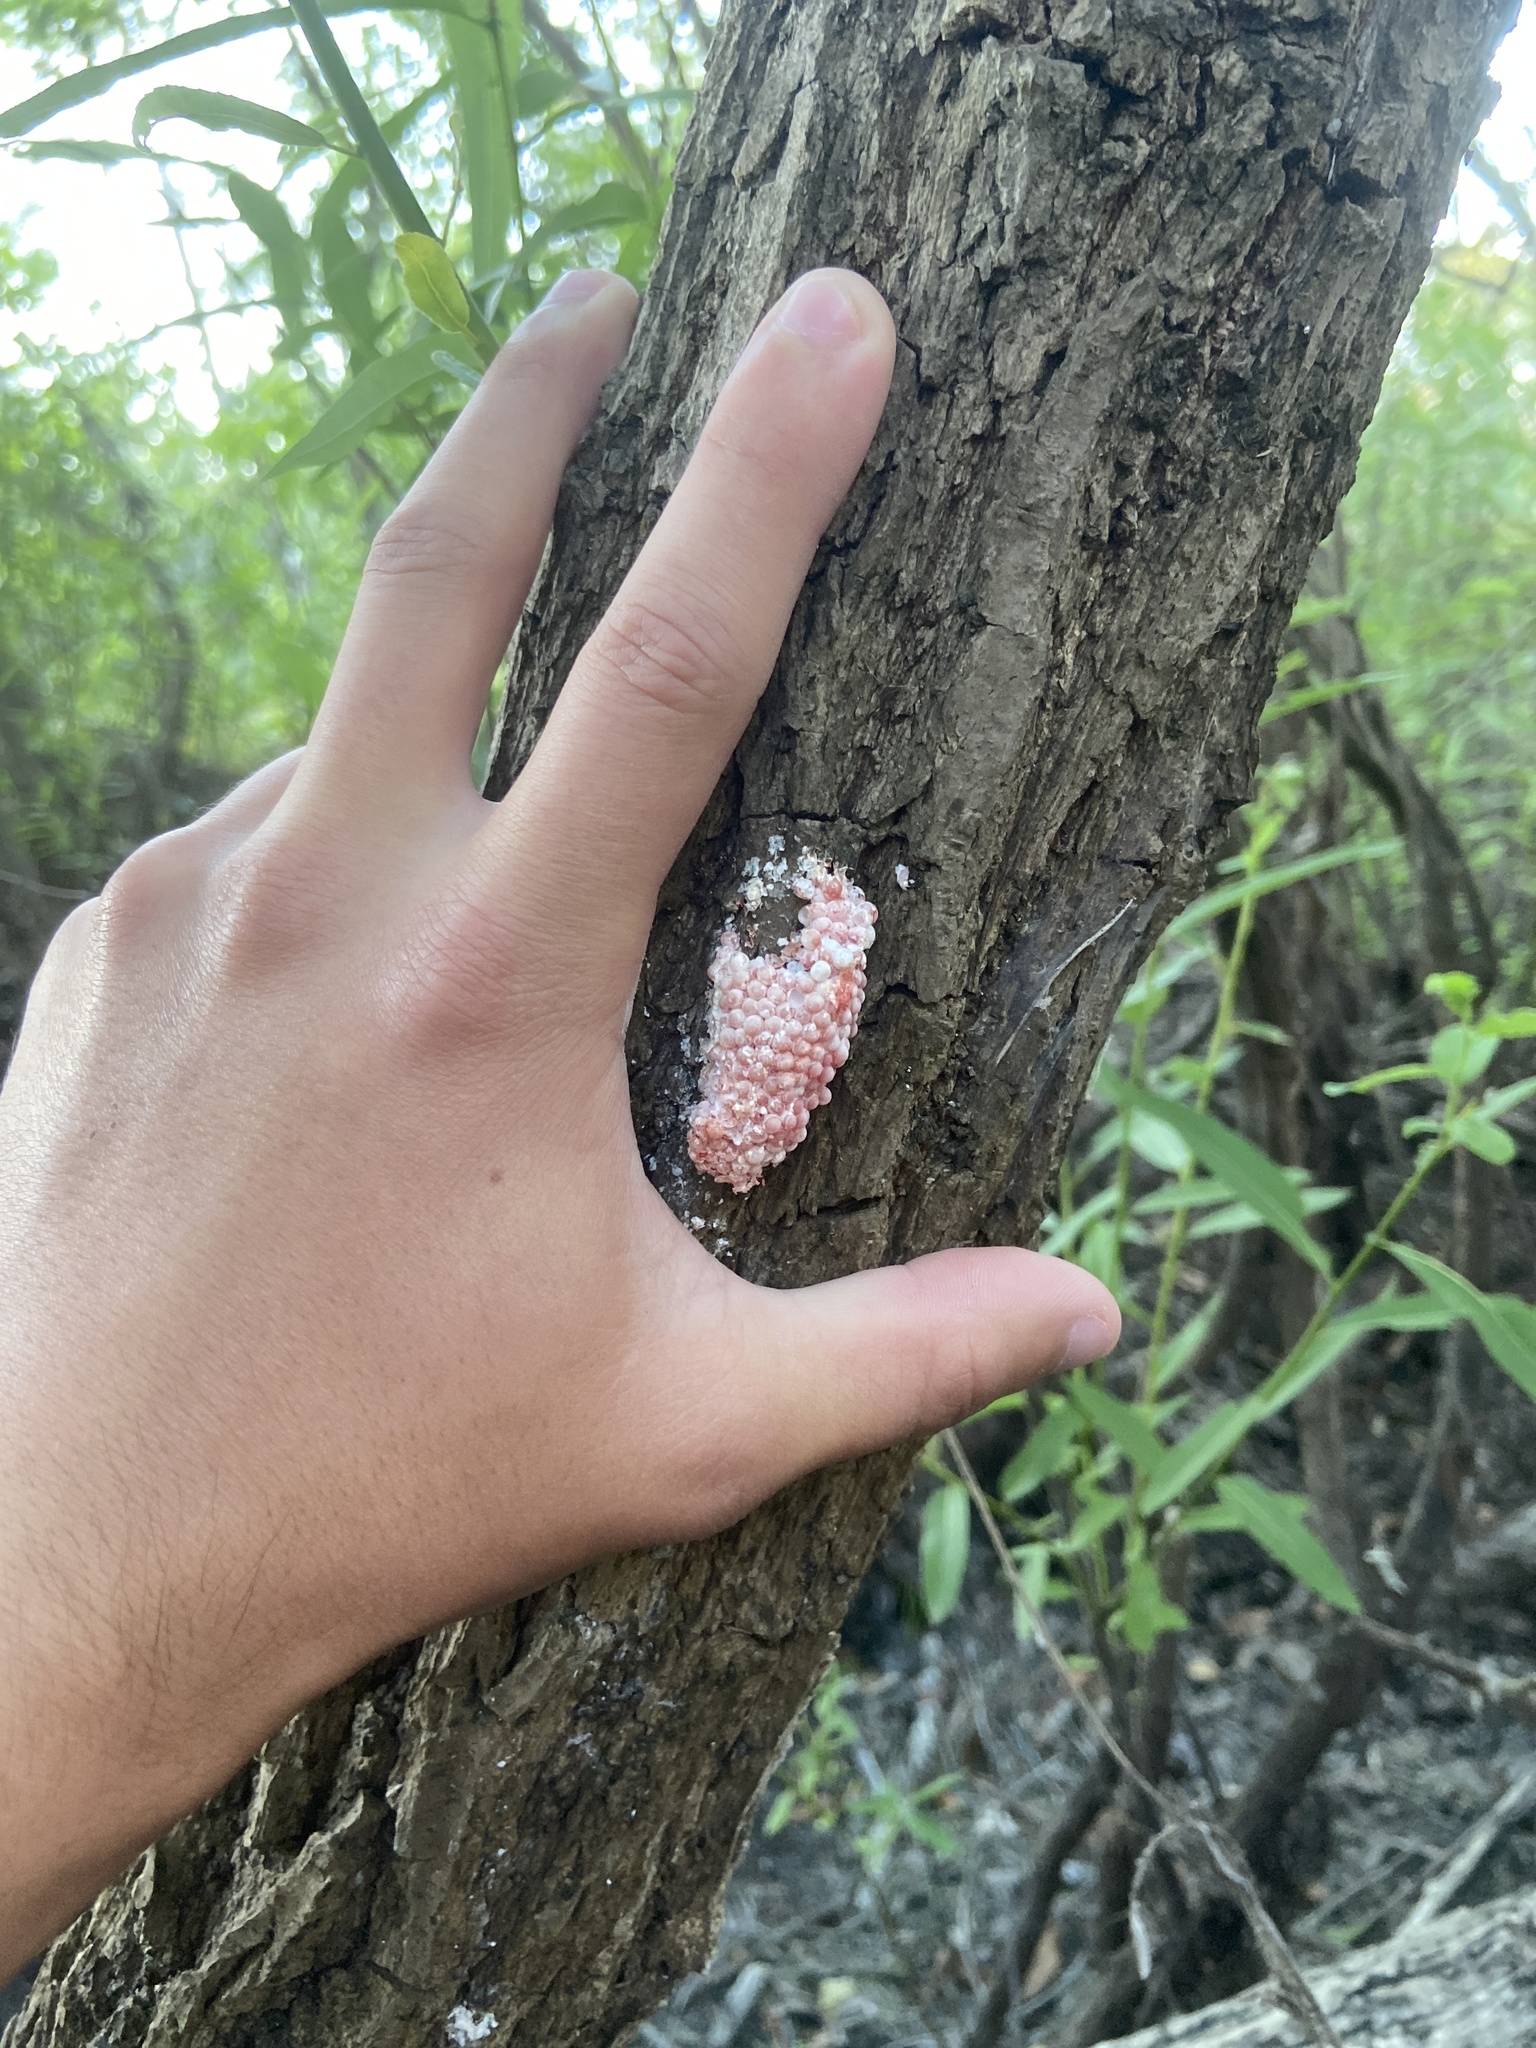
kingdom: Animalia
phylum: Mollusca
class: Gastropoda
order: Architaenioglossa
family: Ampullariidae
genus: Pomacea
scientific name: Pomacea maculata
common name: Giant applesnail
